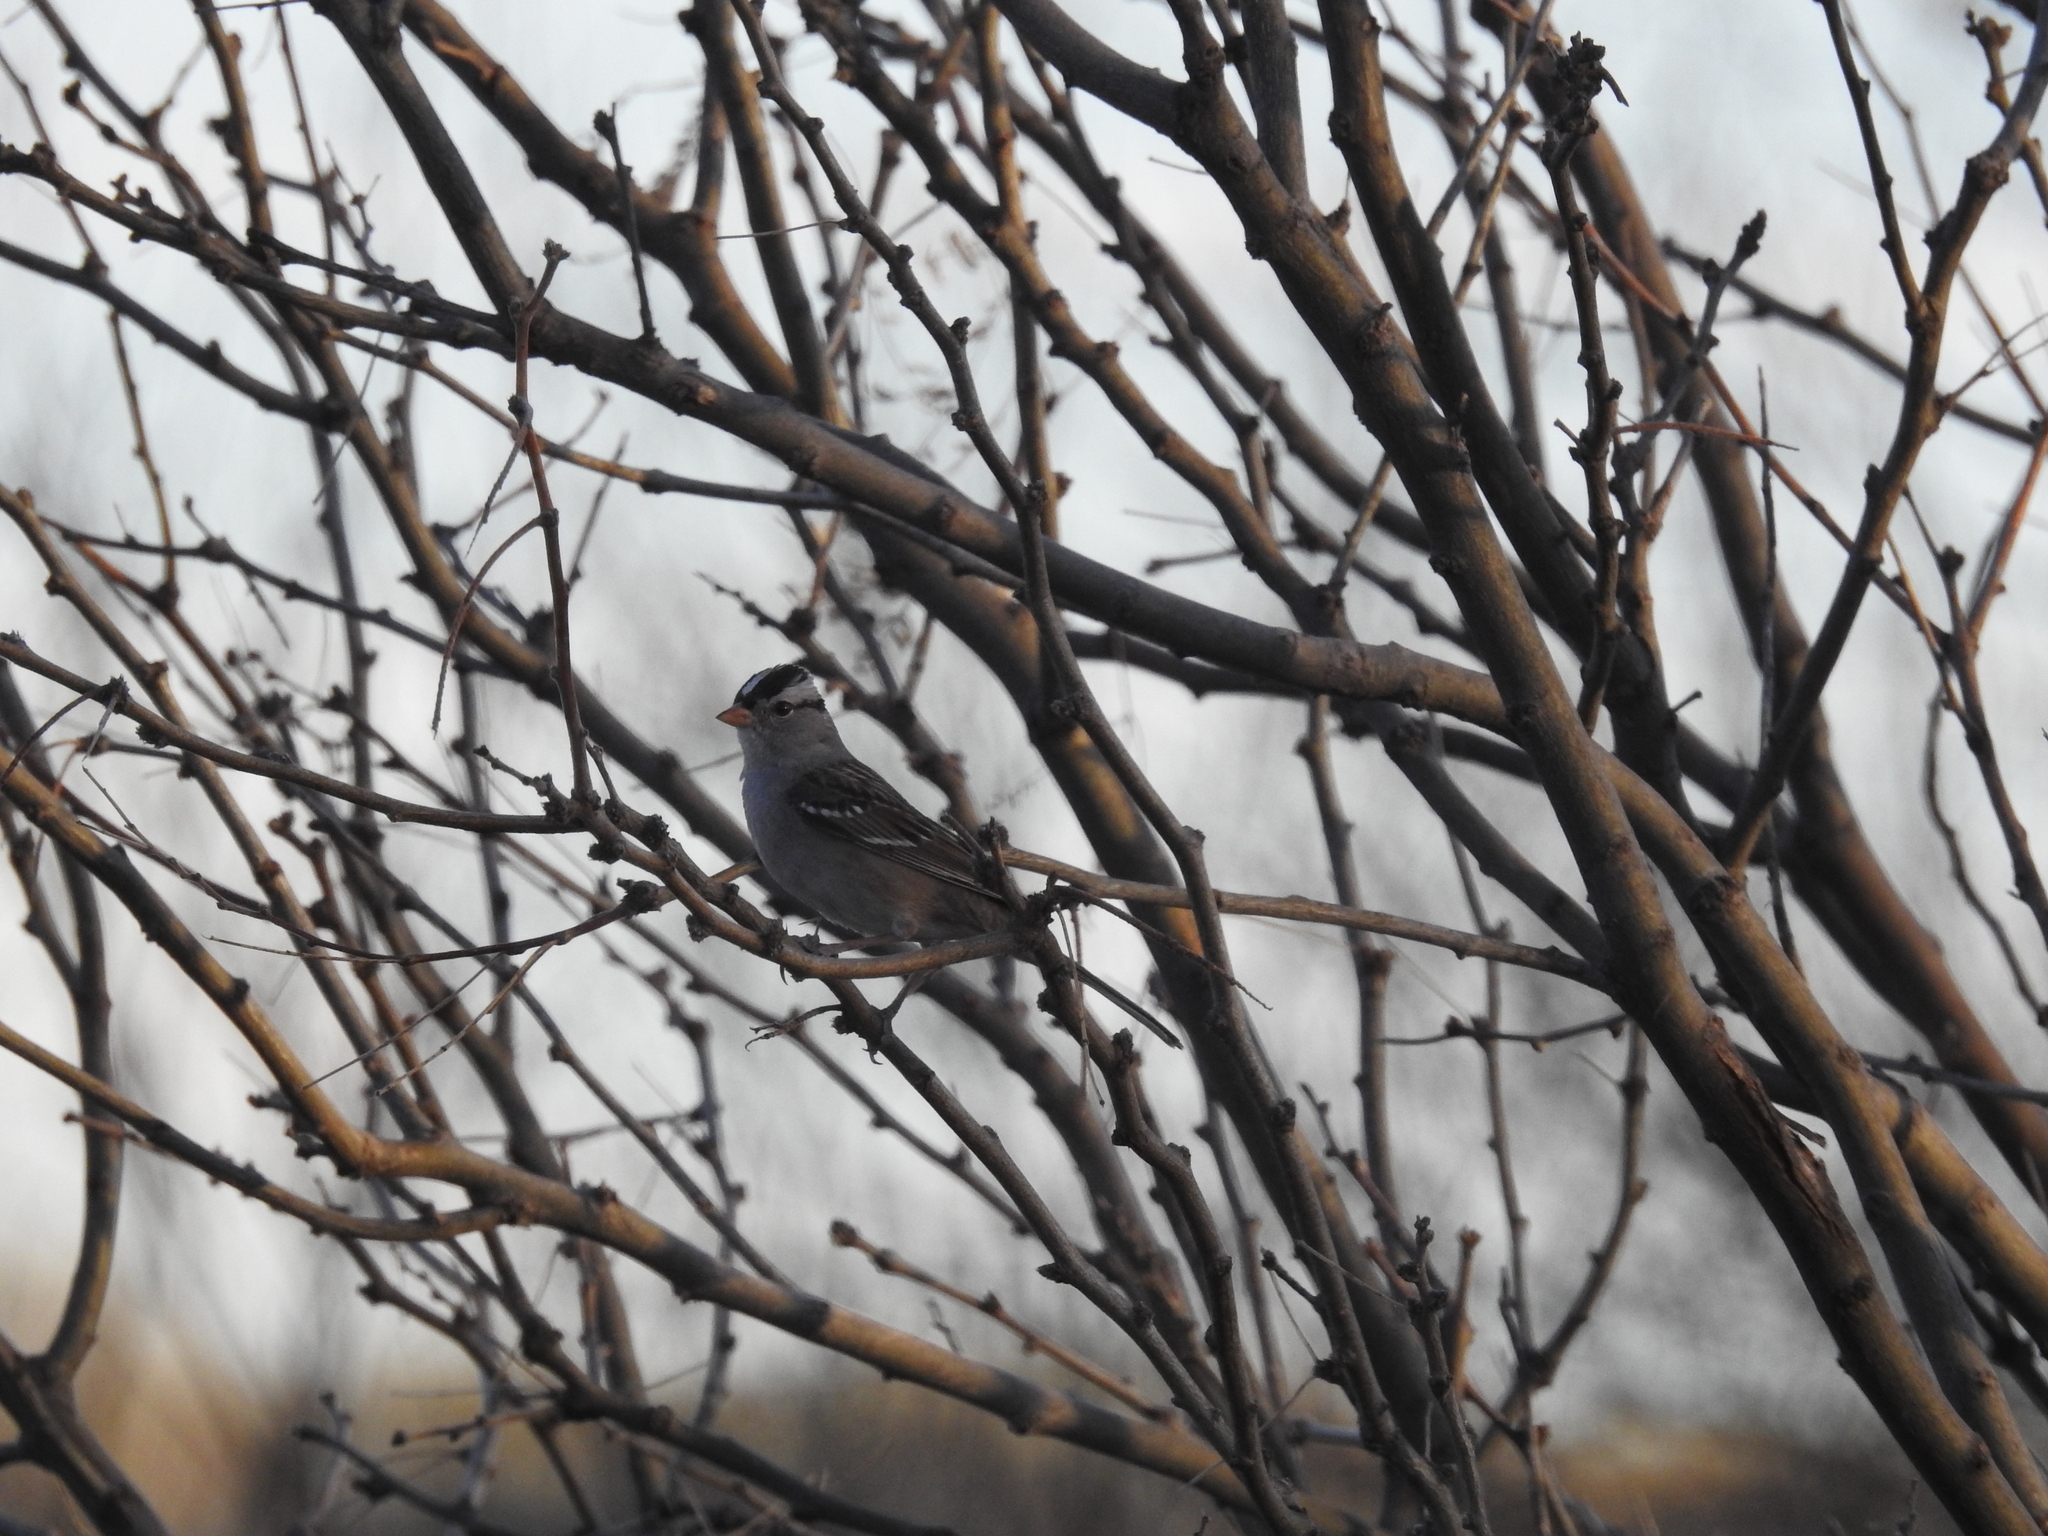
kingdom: Animalia
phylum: Chordata
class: Aves
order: Passeriformes
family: Passerellidae
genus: Zonotrichia
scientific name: Zonotrichia leucophrys
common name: White-crowned sparrow
